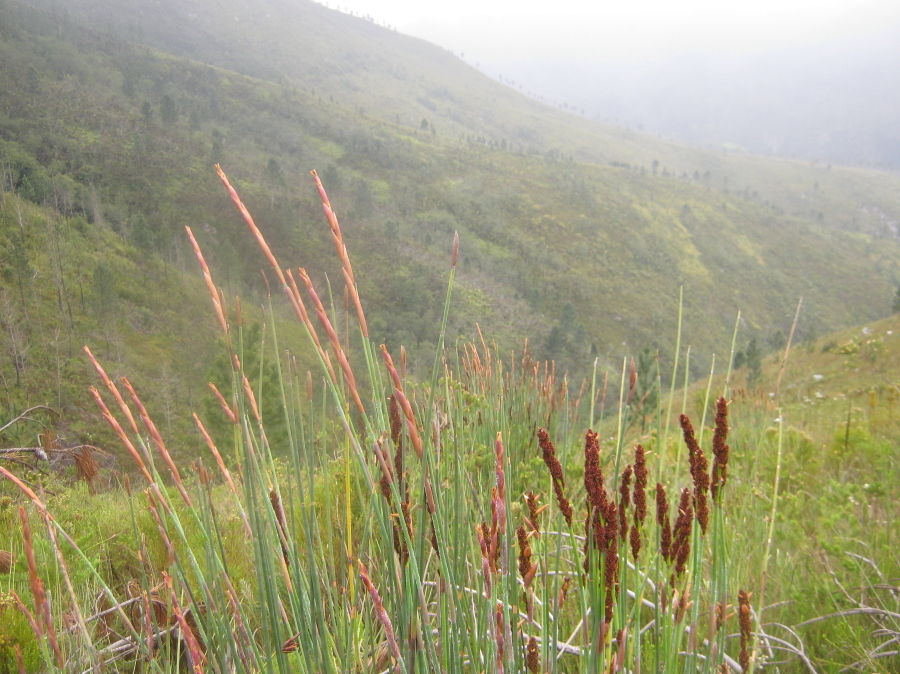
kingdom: Plantae
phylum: Tracheophyta
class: Liliopsida
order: Poales
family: Restionaceae
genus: Elegia
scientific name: Elegia thyrsoidea
